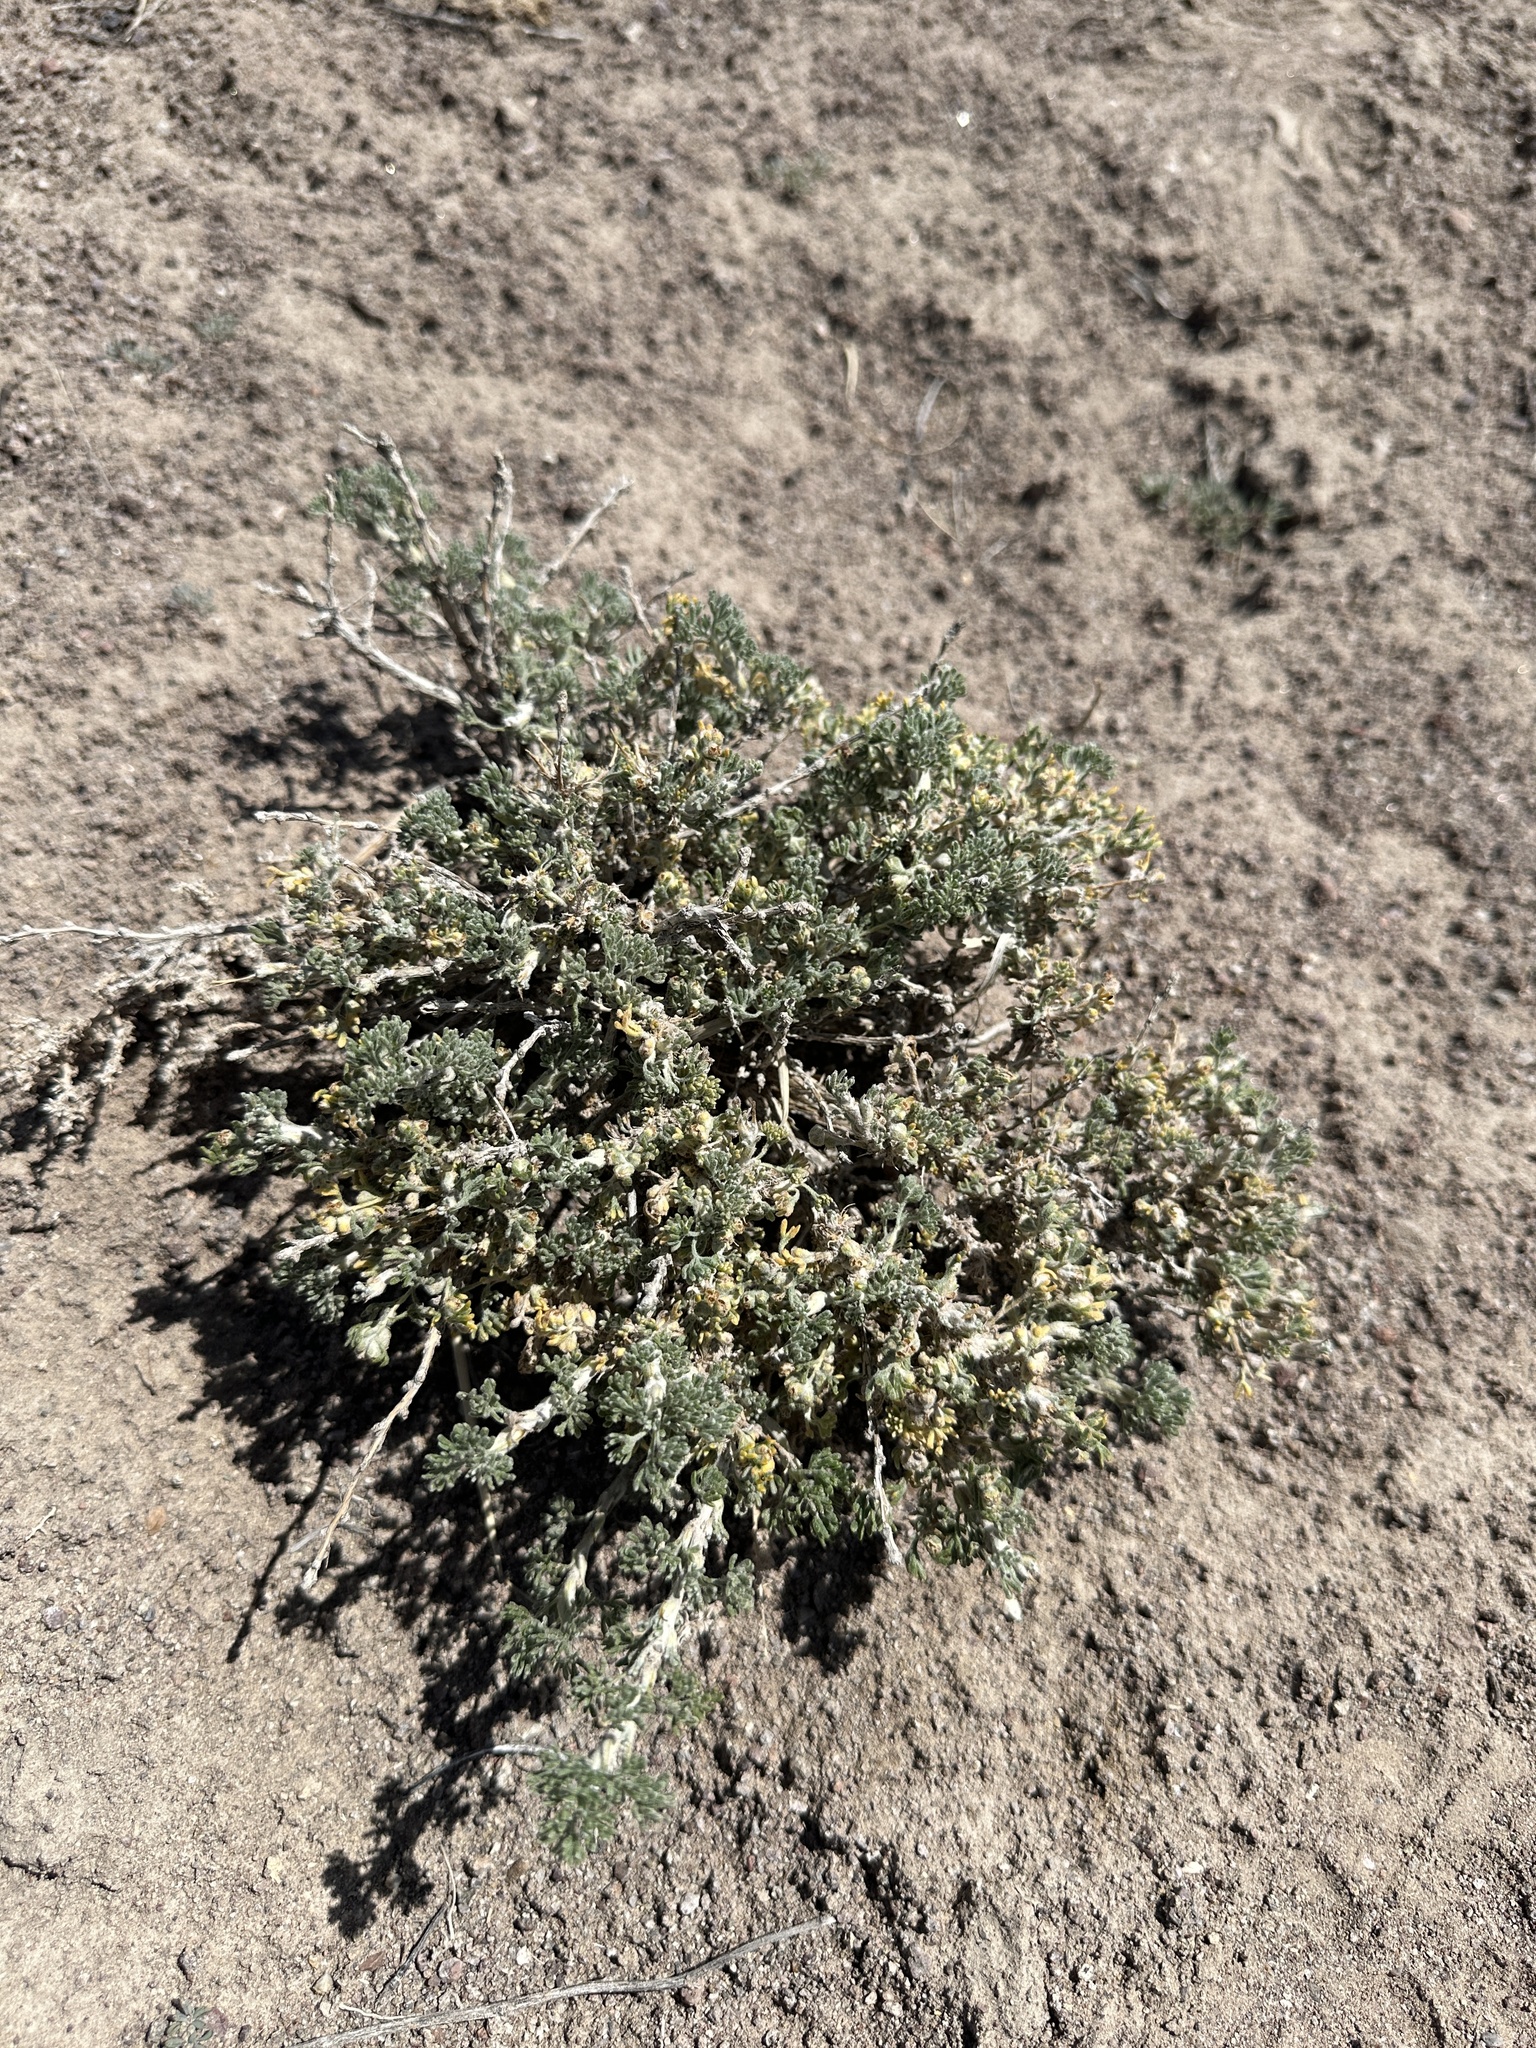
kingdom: Plantae
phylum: Tracheophyta
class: Magnoliopsida
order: Asterales
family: Asteraceae
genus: Artemisia
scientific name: Artemisia spinescens
